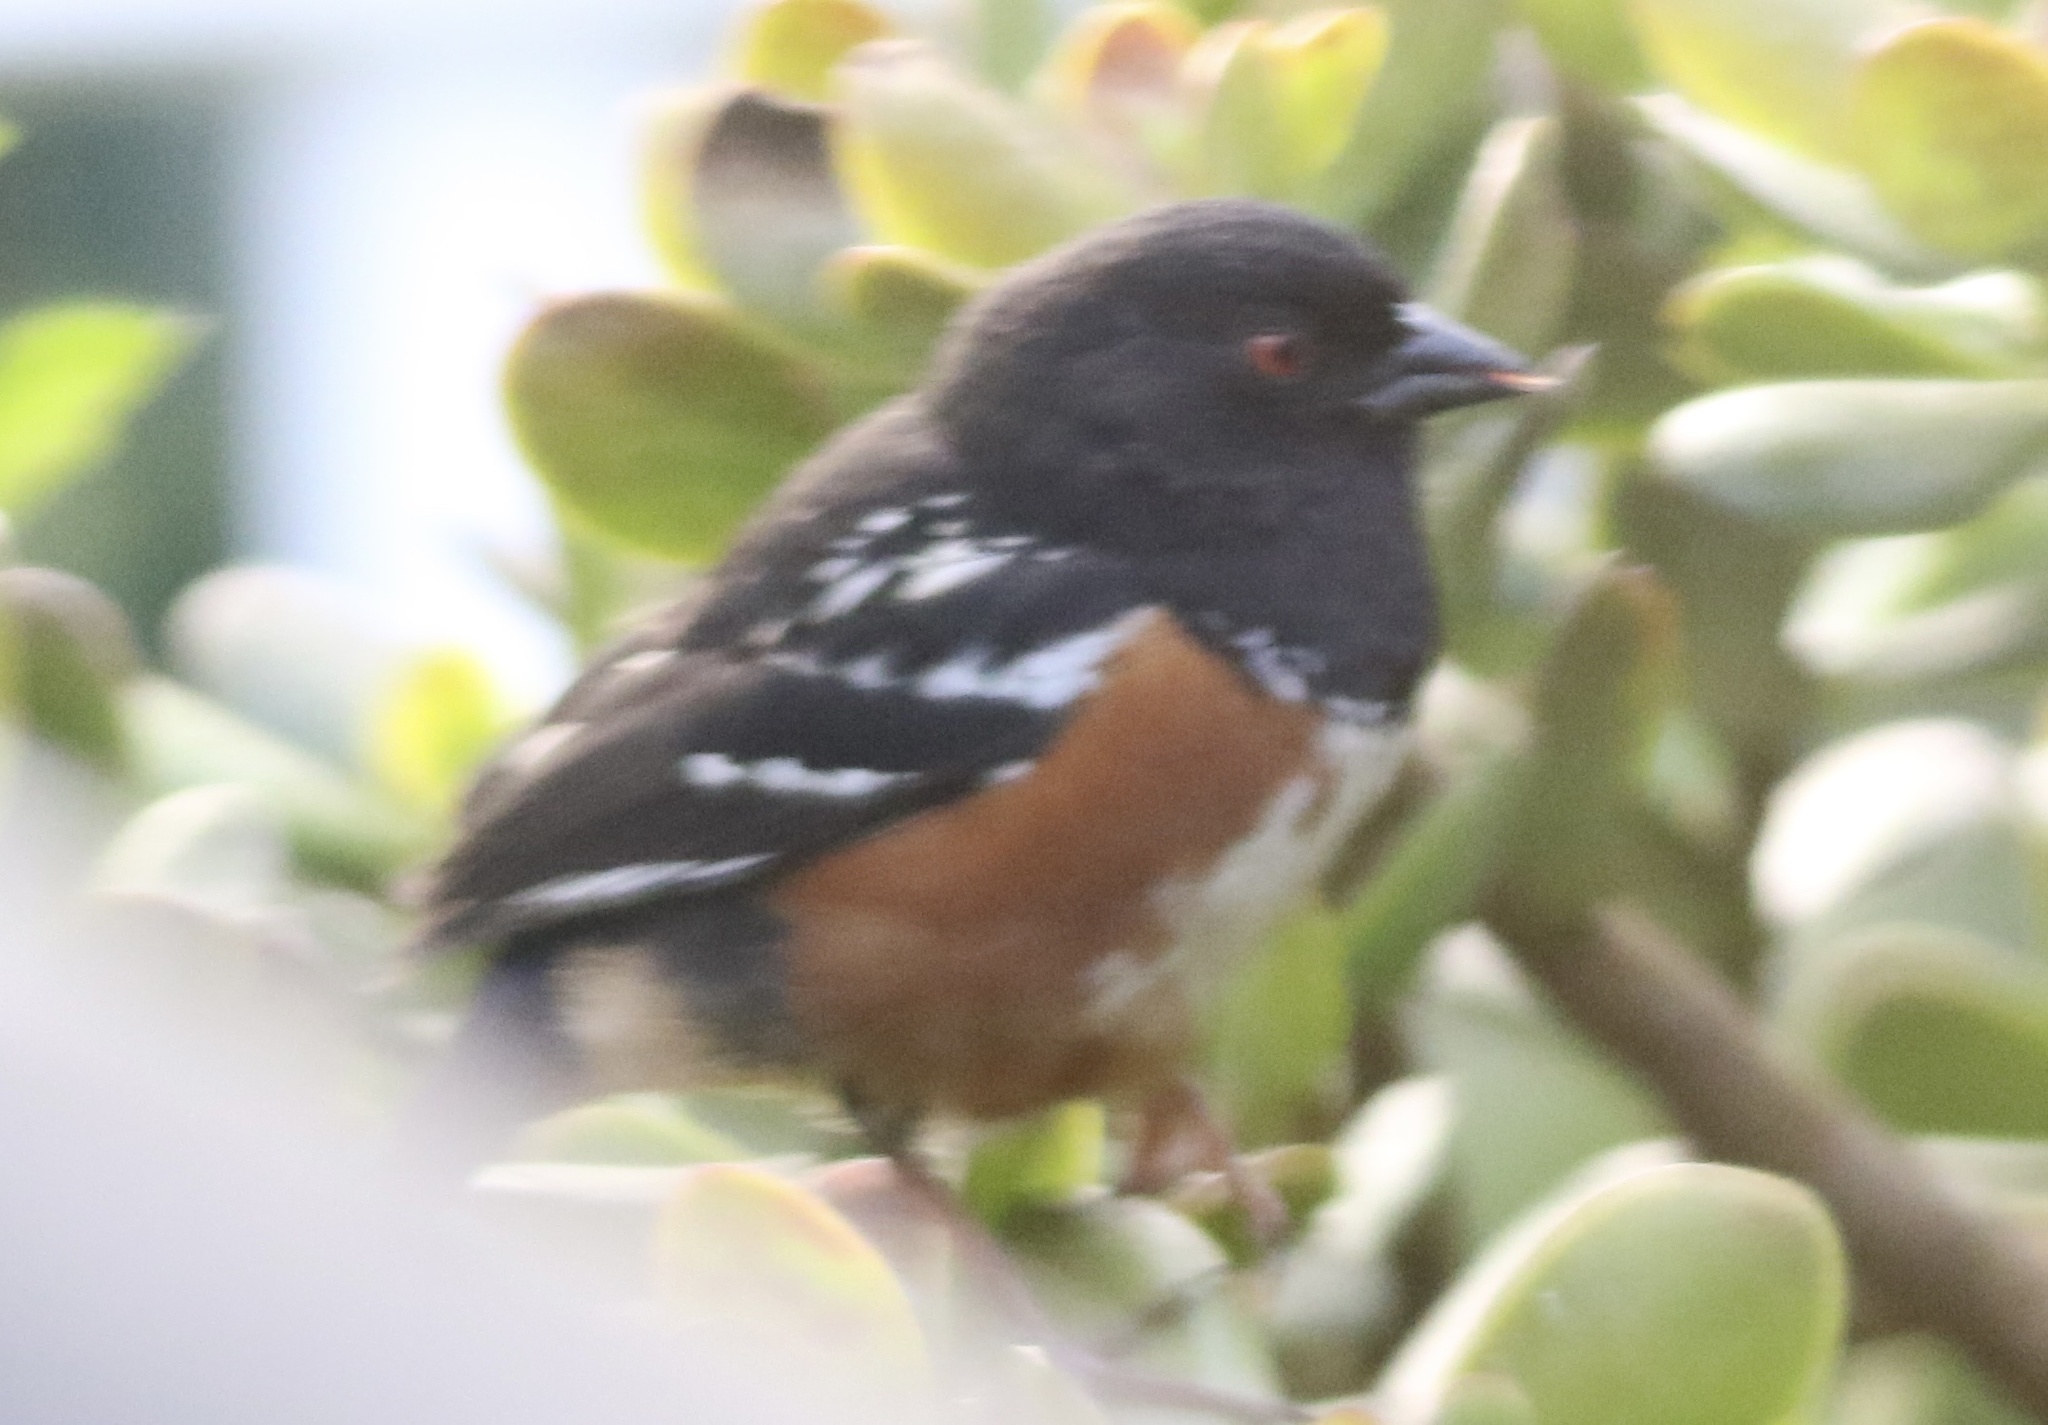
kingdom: Animalia
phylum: Chordata
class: Aves
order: Passeriformes
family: Passerellidae
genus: Pipilo
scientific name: Pipilo maculatus
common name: Spotted towhee
